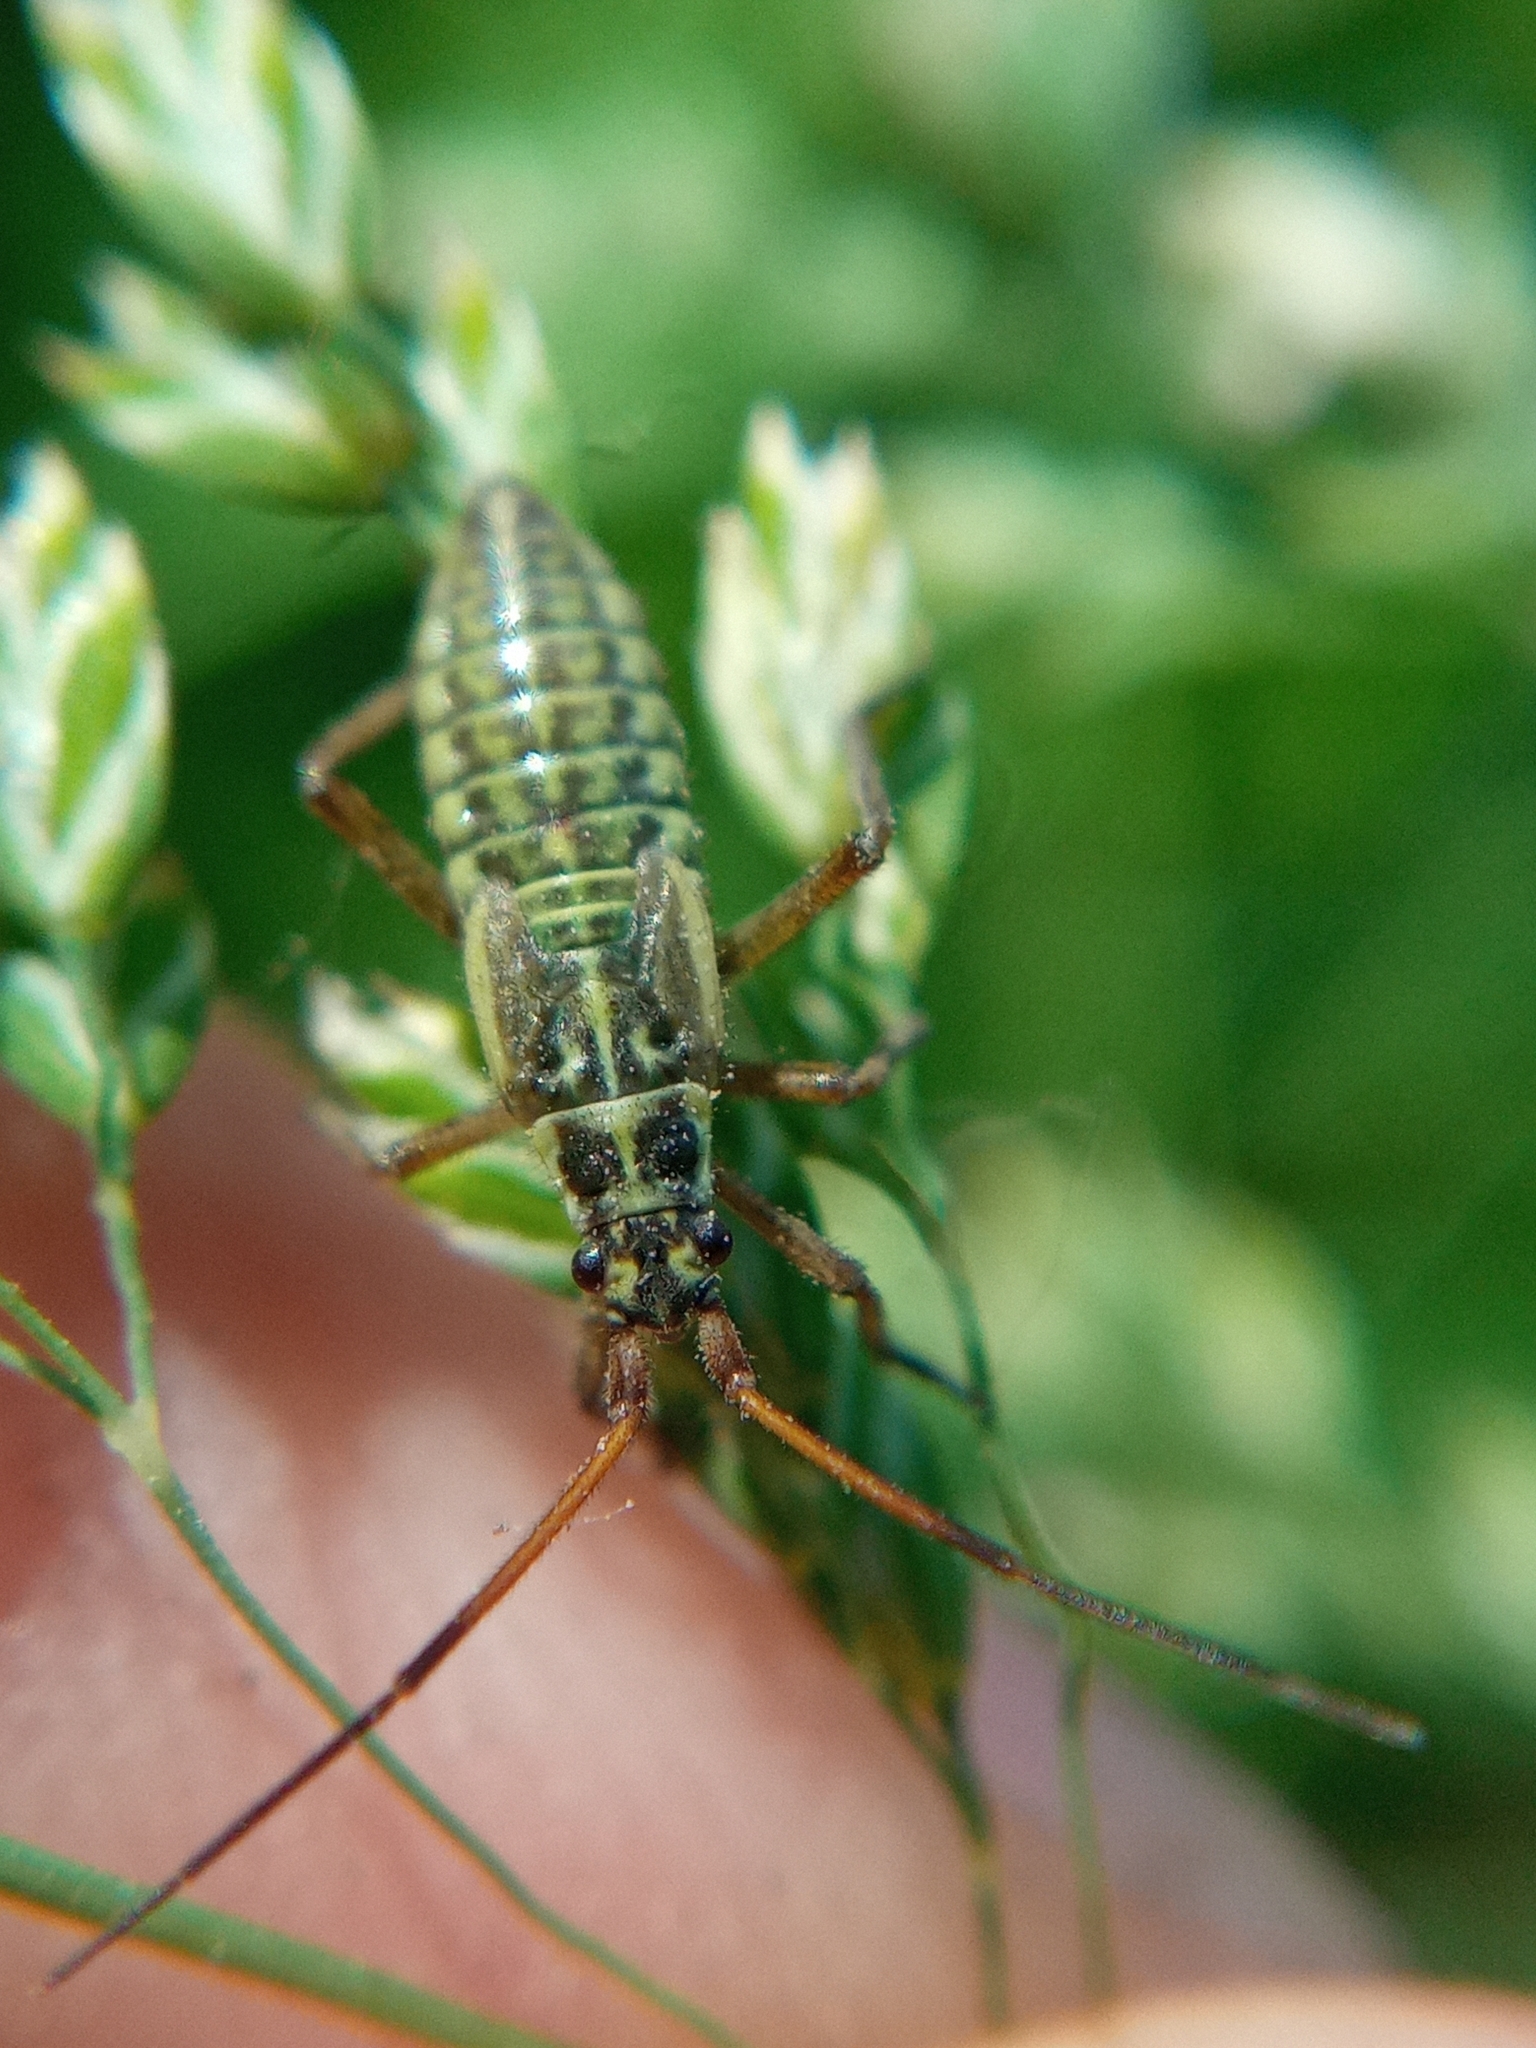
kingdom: Animalia
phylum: Arthropoda
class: Insecta
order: Hemiptera
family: Miridae
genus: Leptopterna
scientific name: Leptopterna dolabrata
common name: Meadow plant bug
